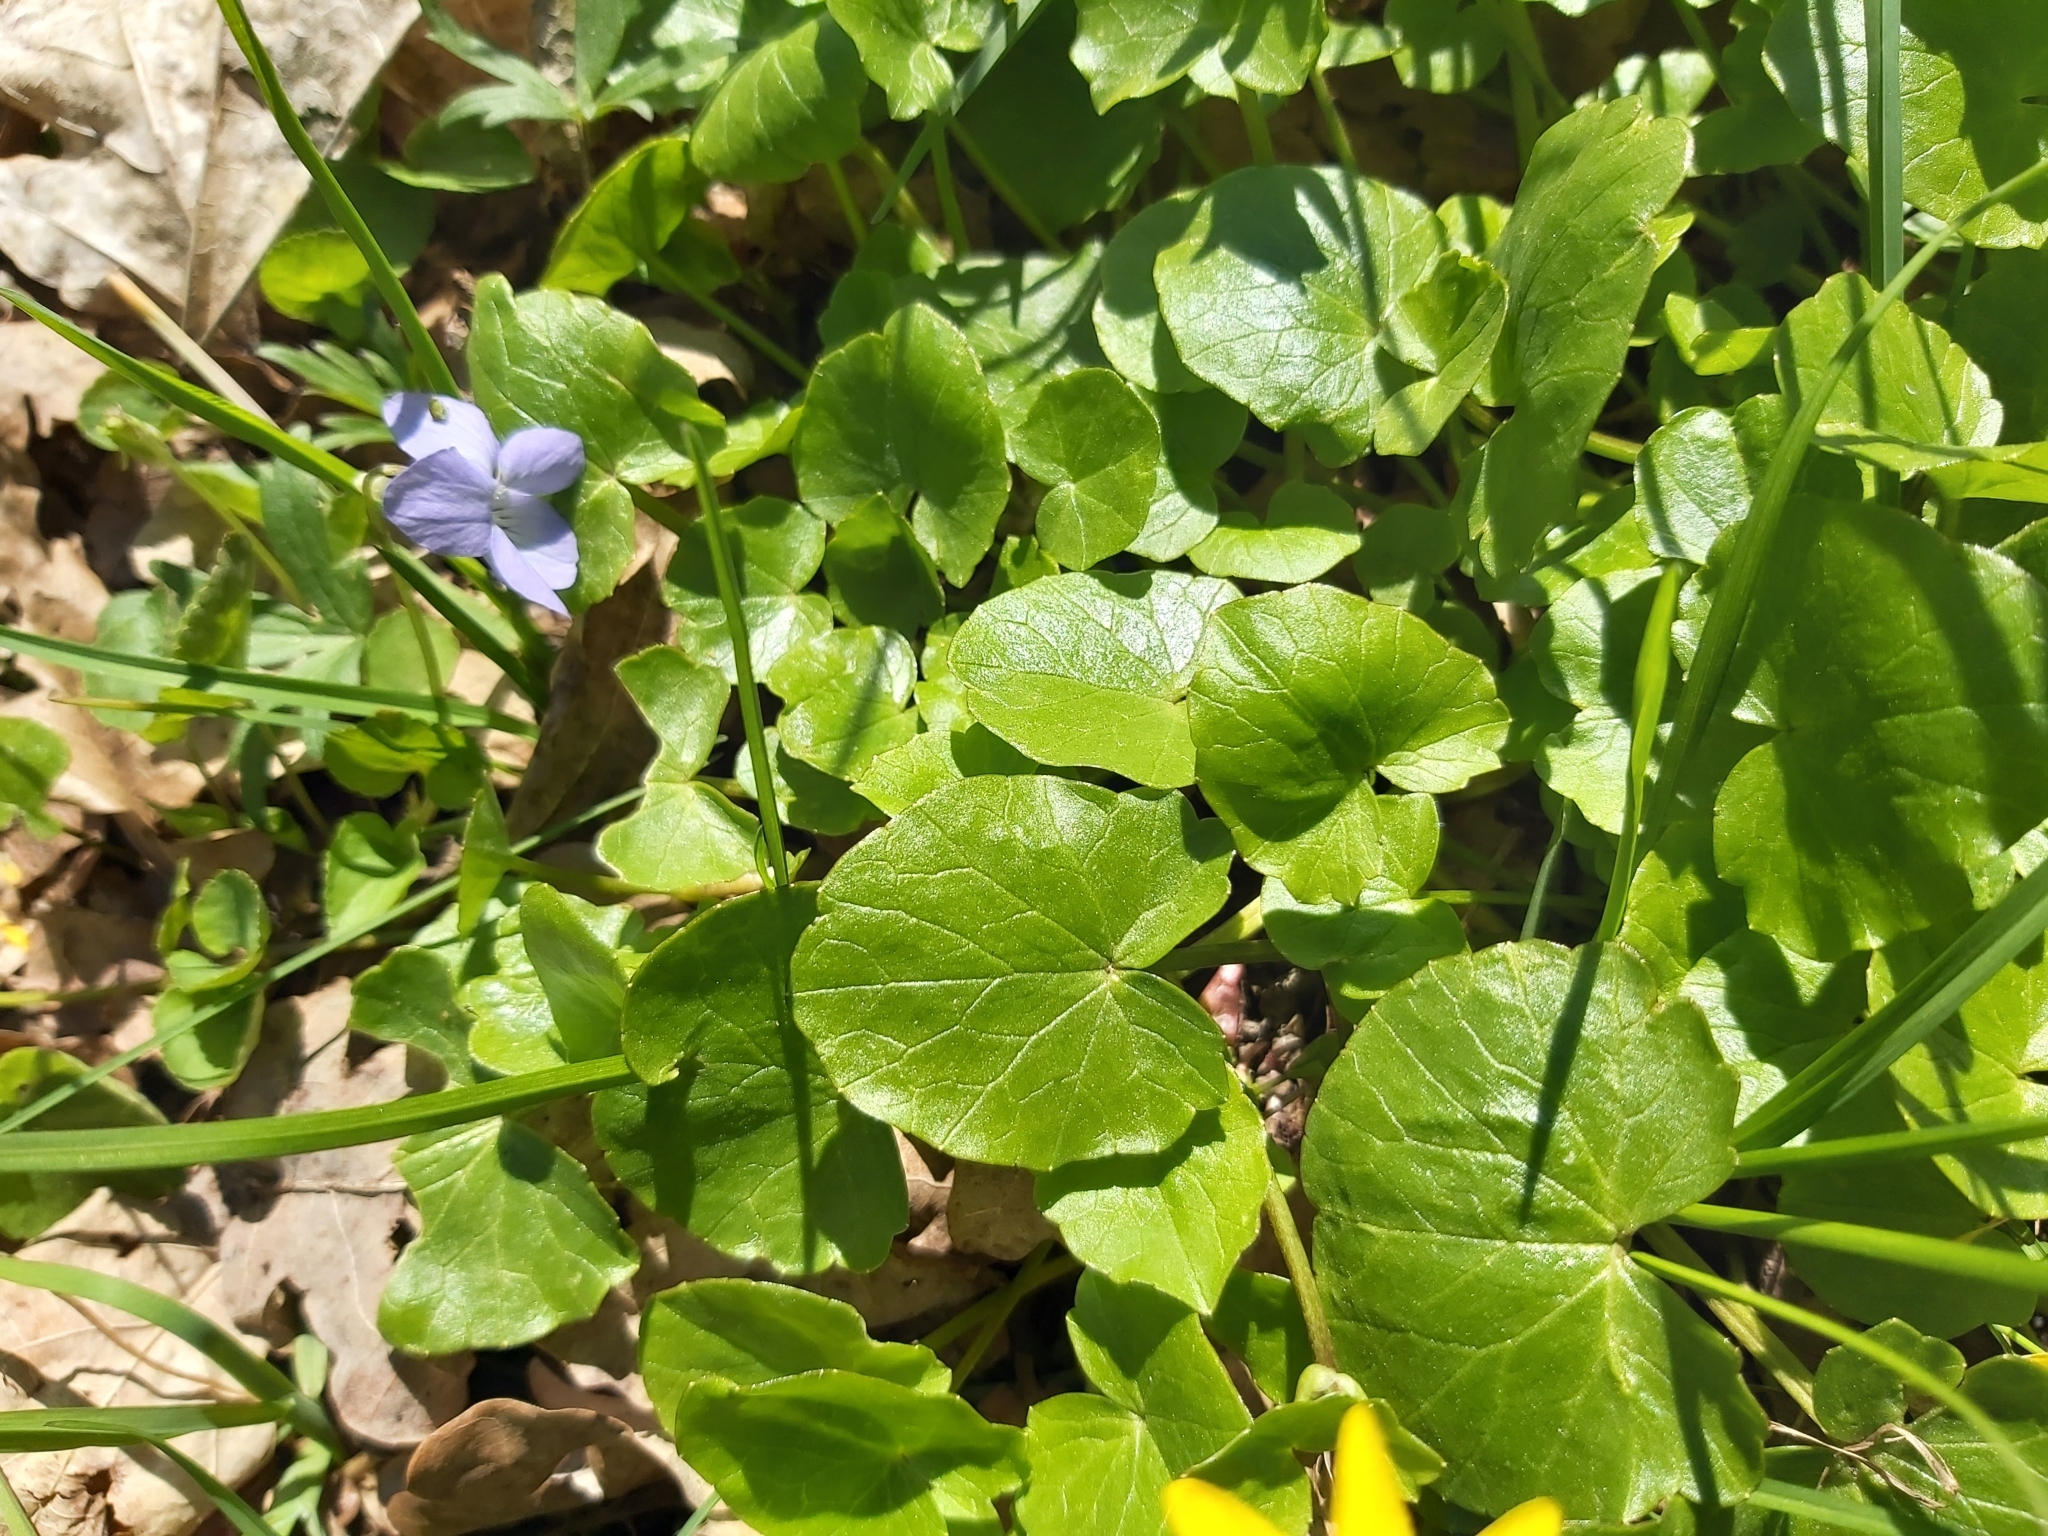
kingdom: Plantae
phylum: Tracheophyta
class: Magnoliopsida
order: Ranunculales
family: Ranunculaceae
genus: Ficaria
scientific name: Ficaria verna
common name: Lesser celandine
